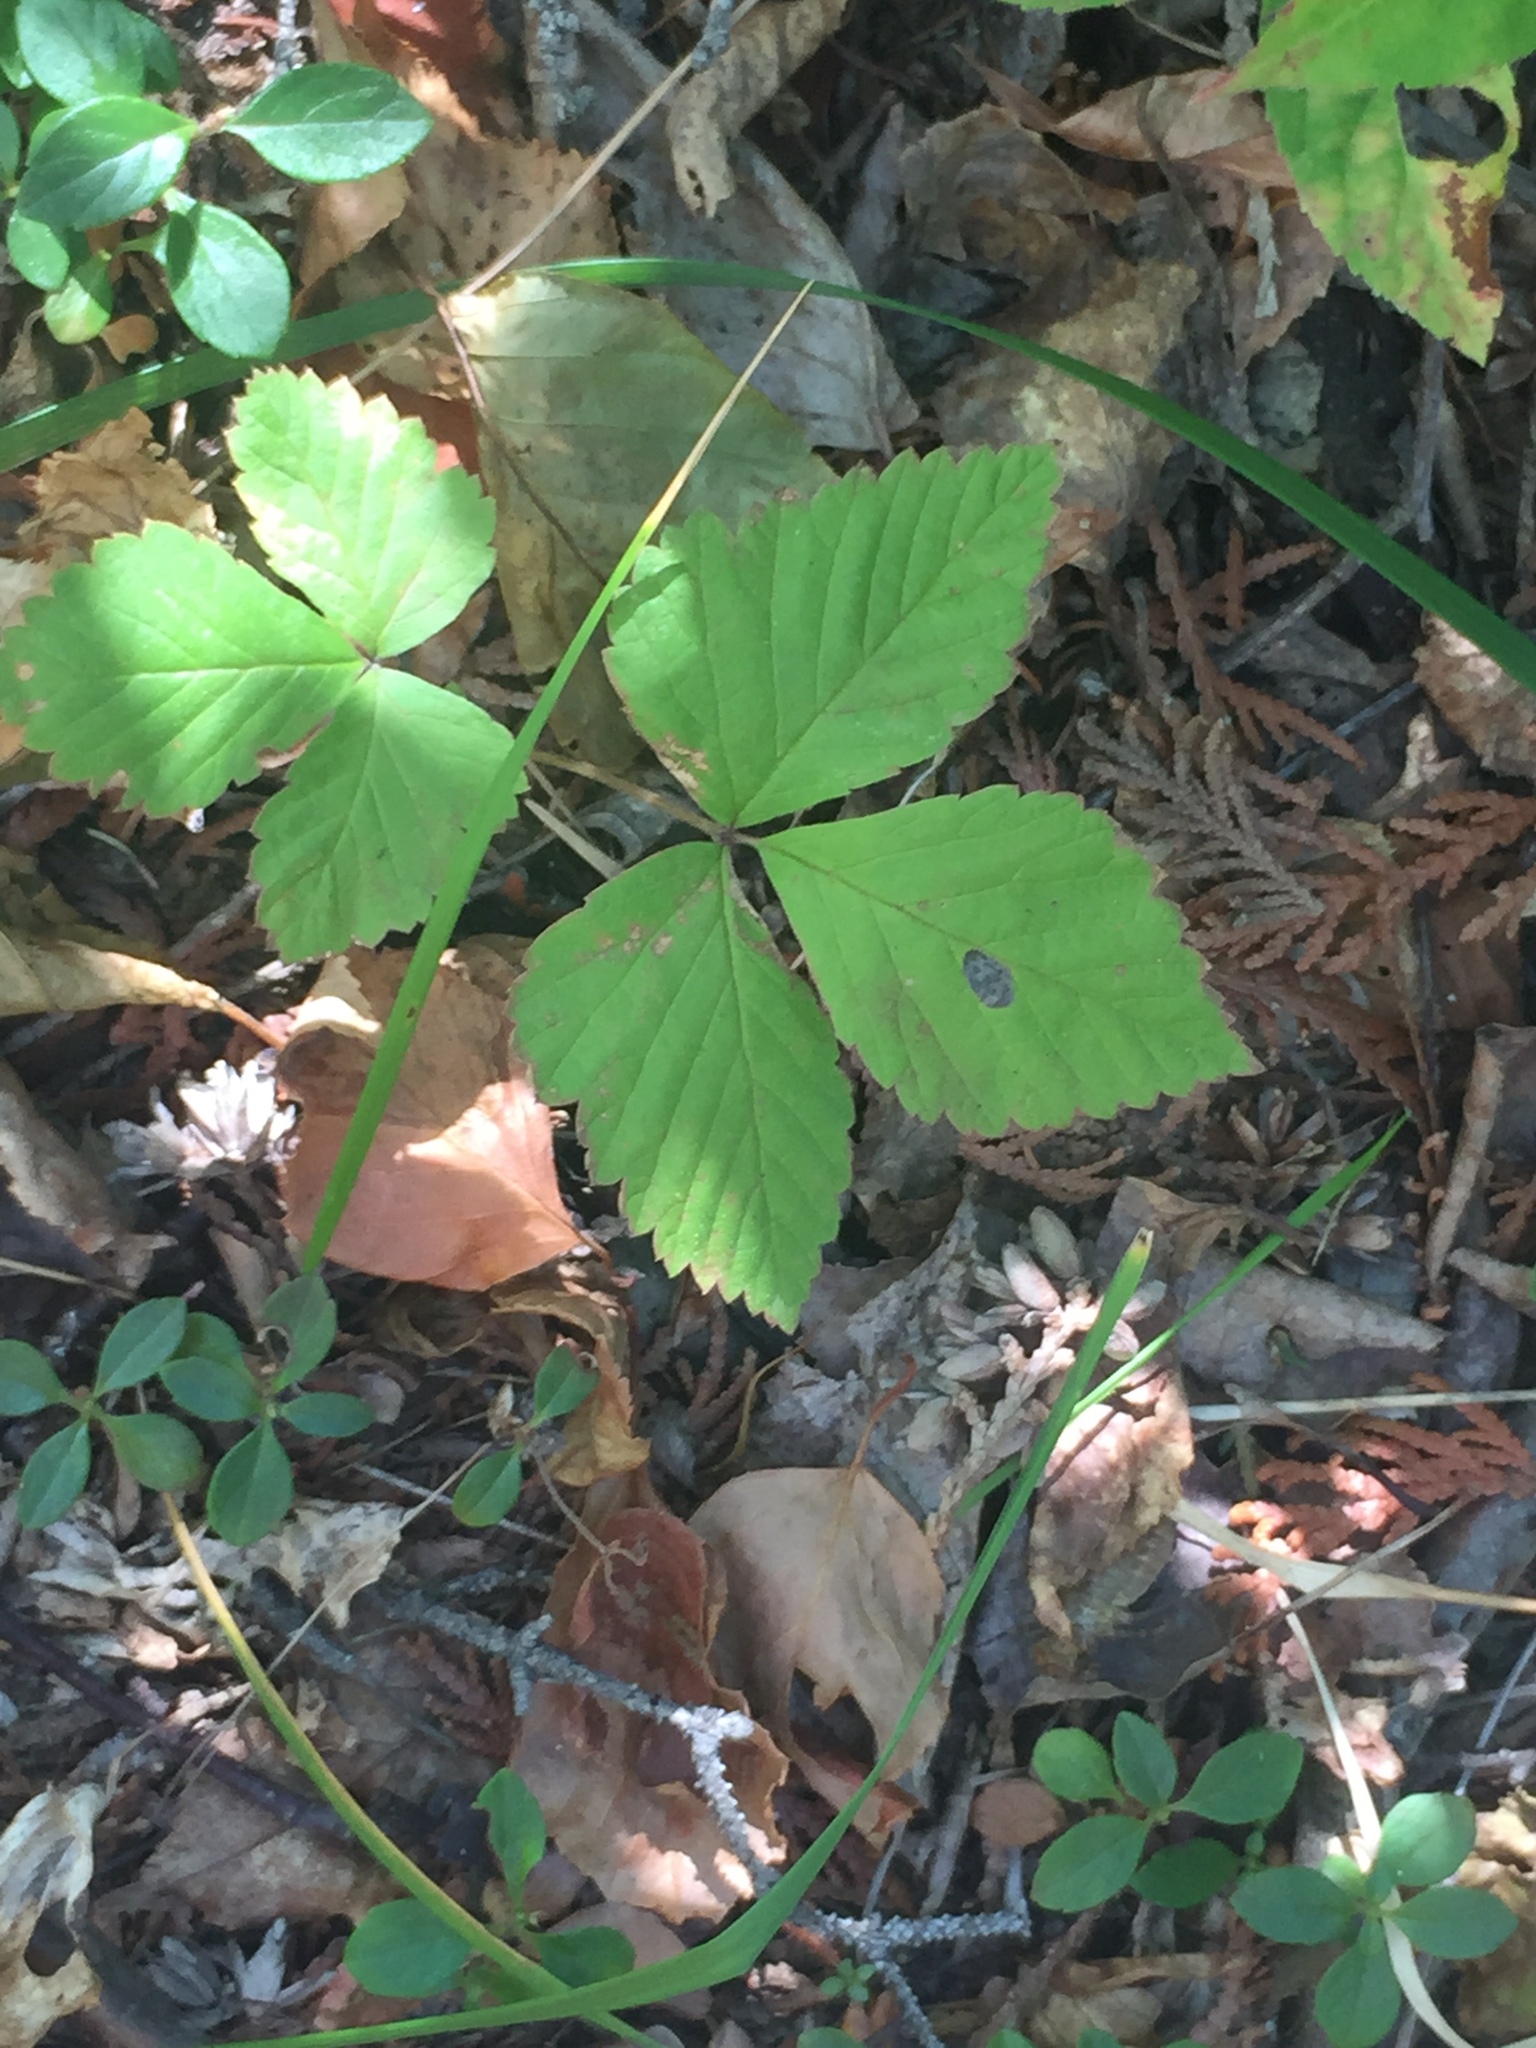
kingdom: Plantae
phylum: Tracheophyta
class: Magnoliopsida
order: Rosales
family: Rosaceae
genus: Rubus
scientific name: Rubus pubescens
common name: Dwarf raspberry
